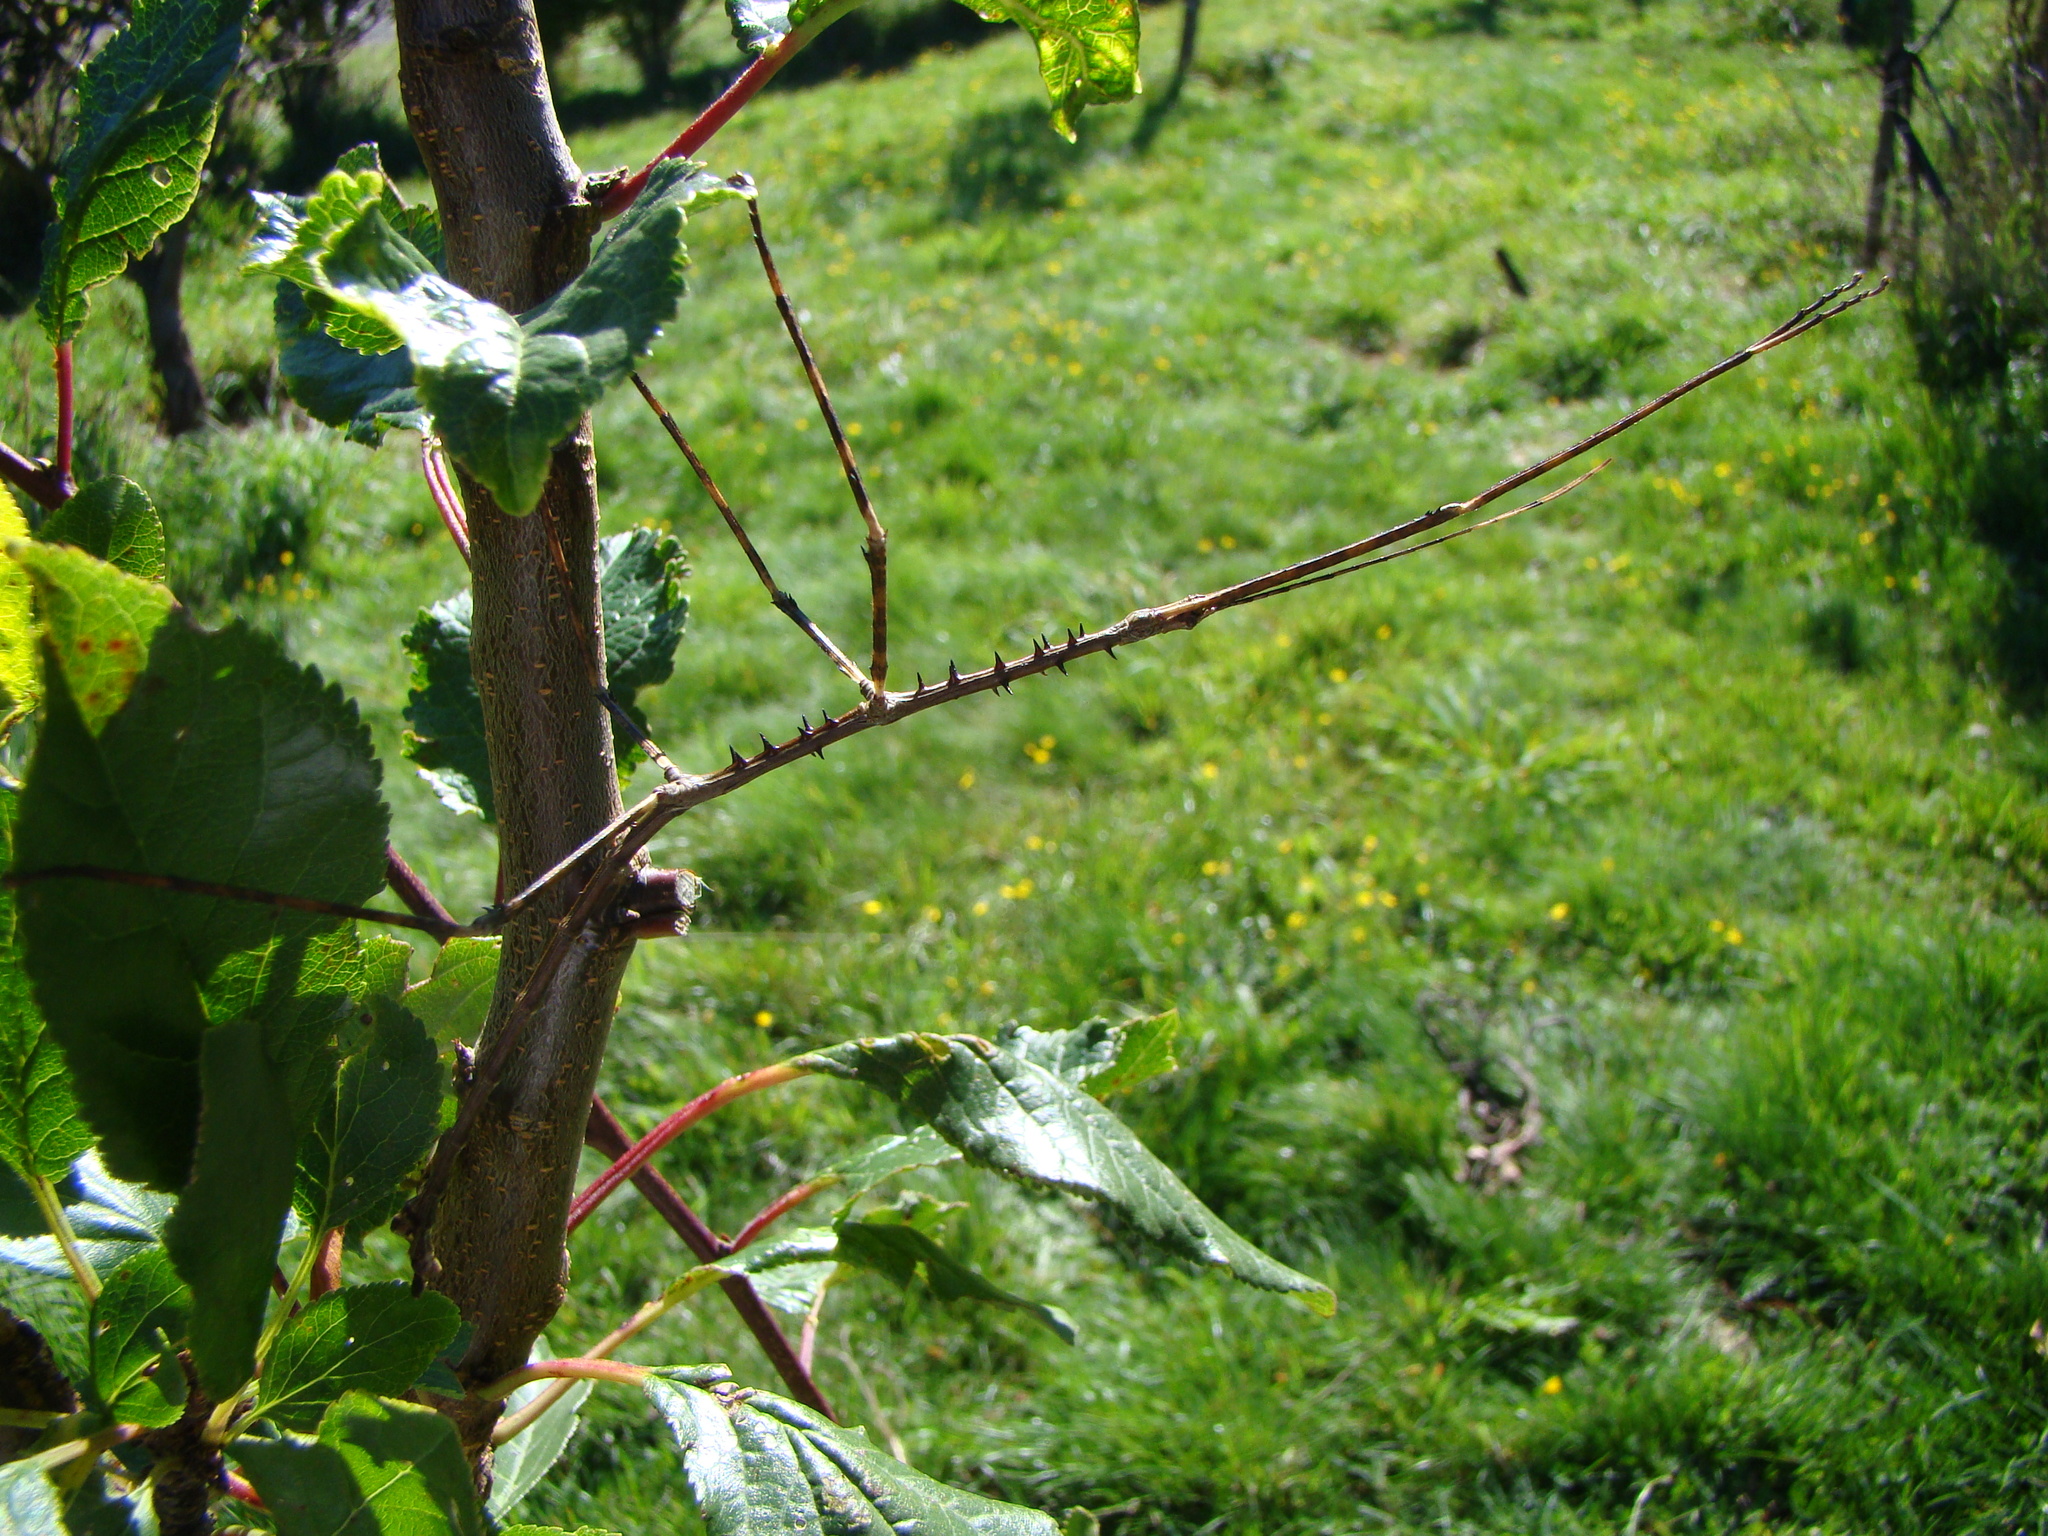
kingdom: Animalia
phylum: Arthropoda
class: Insecta
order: Phasmida
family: Phasmatidae
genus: Argosarchus
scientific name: Argosarchus horridus
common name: Bristly stick insect
